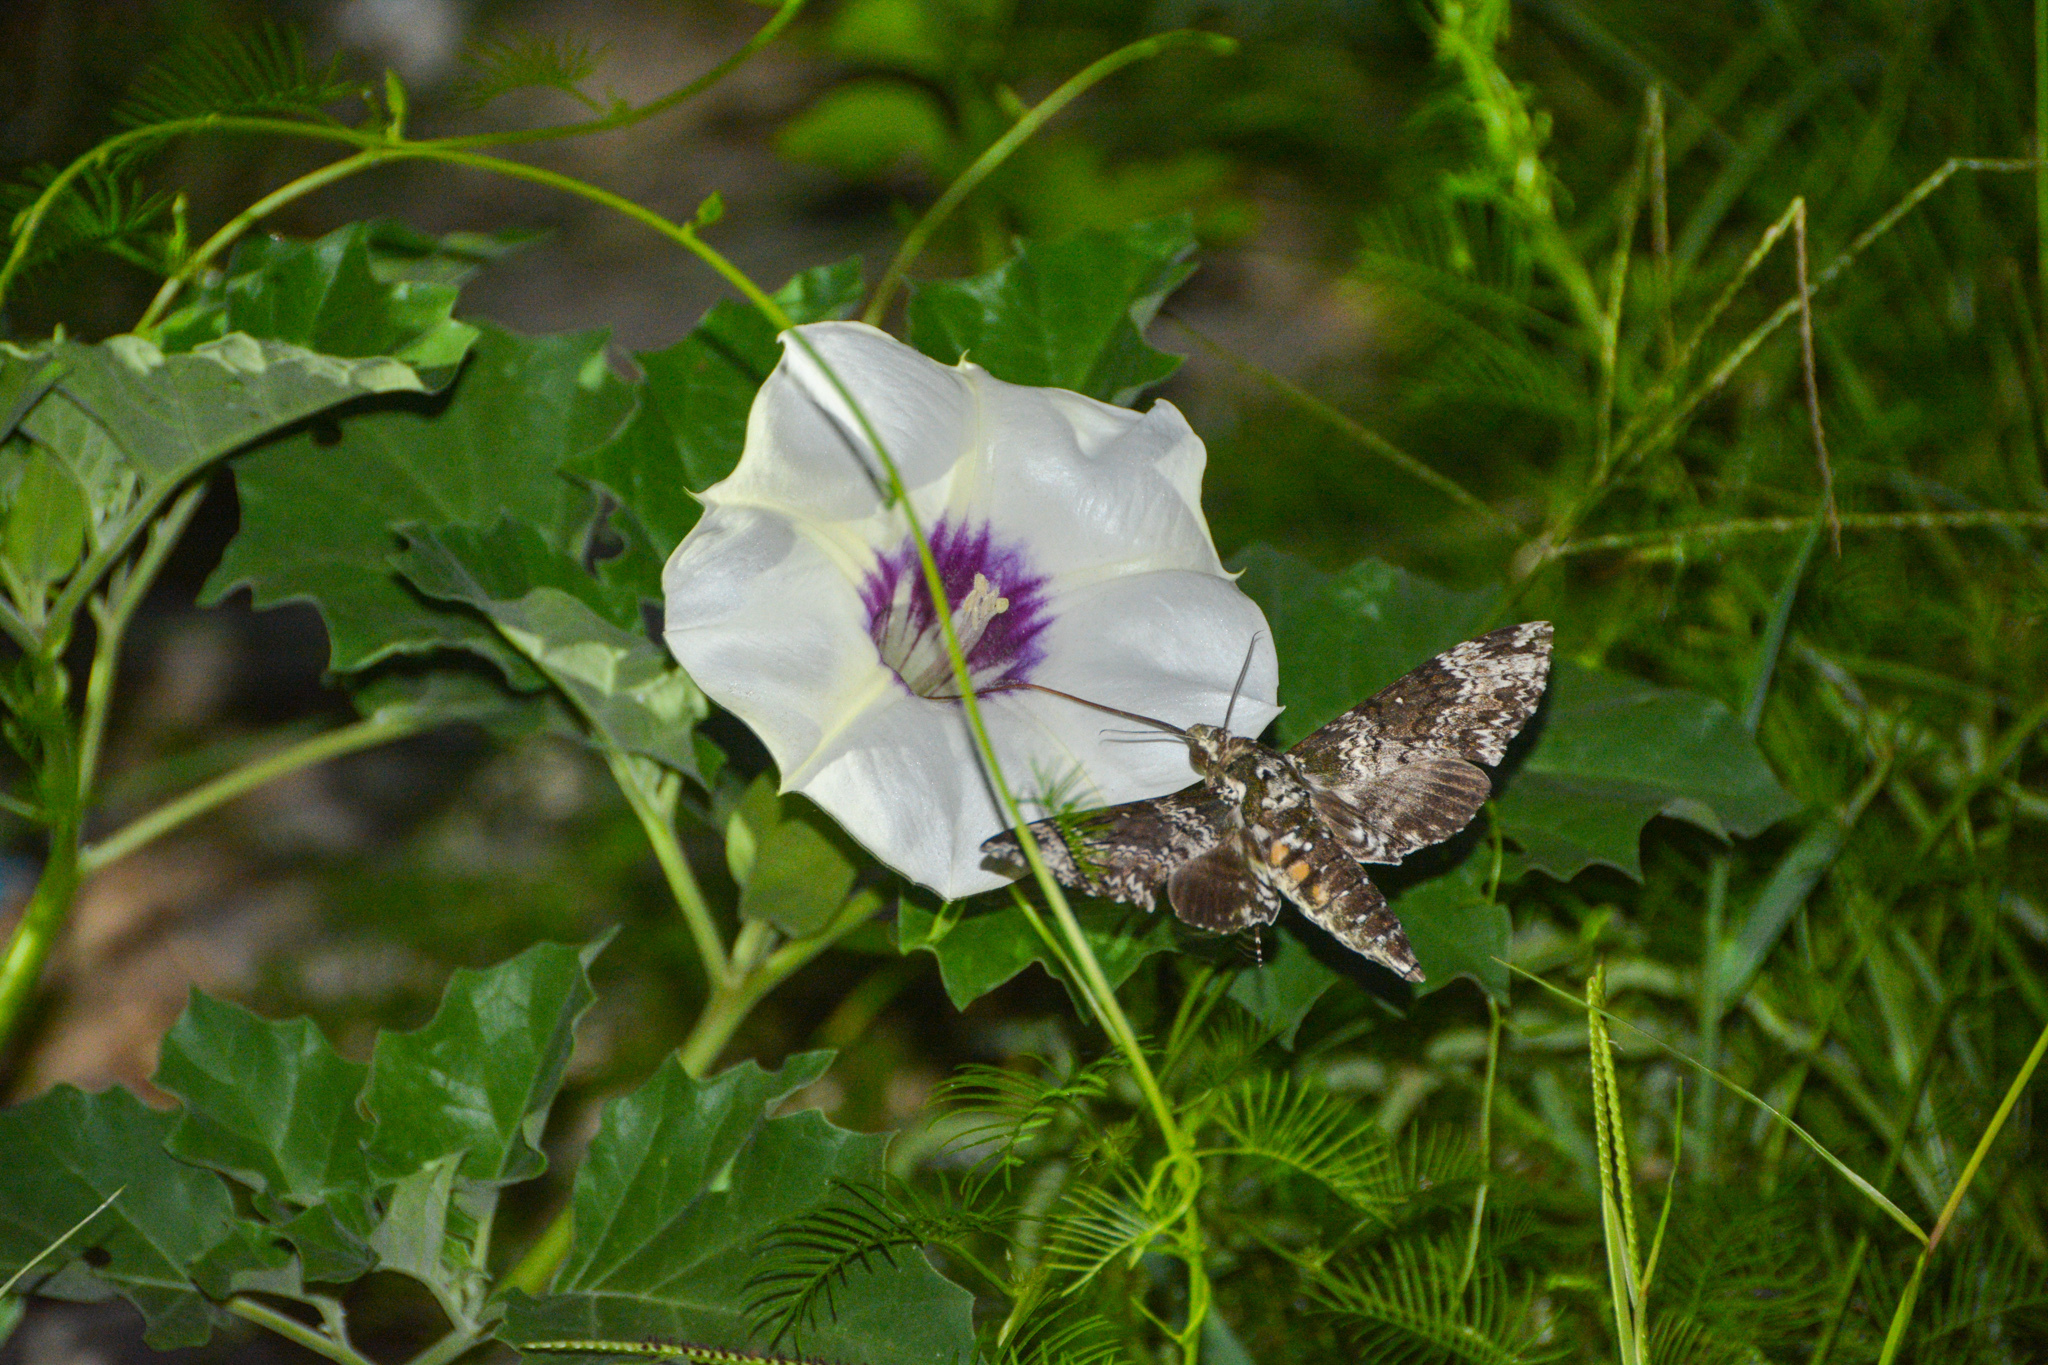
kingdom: Animalia
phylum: Arthropoda
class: Insecta
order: Lepidoptera
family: Sphingidae
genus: Manduca
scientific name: Manduca rustica
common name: Rustic sphinx
